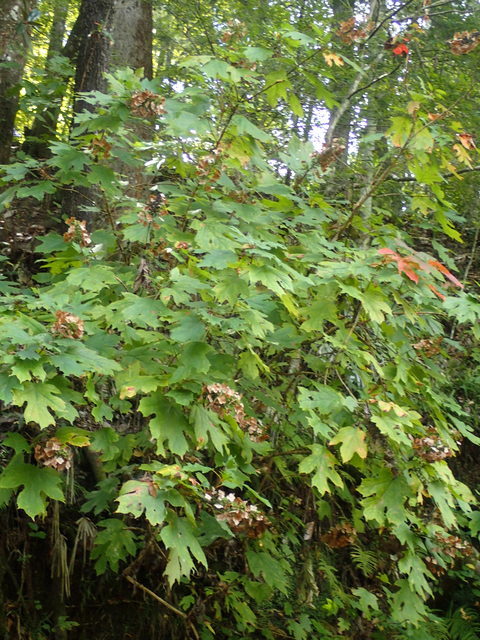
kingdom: Plantae
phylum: Tracheophyta
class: Magnoliopsida
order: Cornales
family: Hydrangeaceae
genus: Hydrangea
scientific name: Hydrangea quercifolia
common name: Oak-leaf hydrangea
